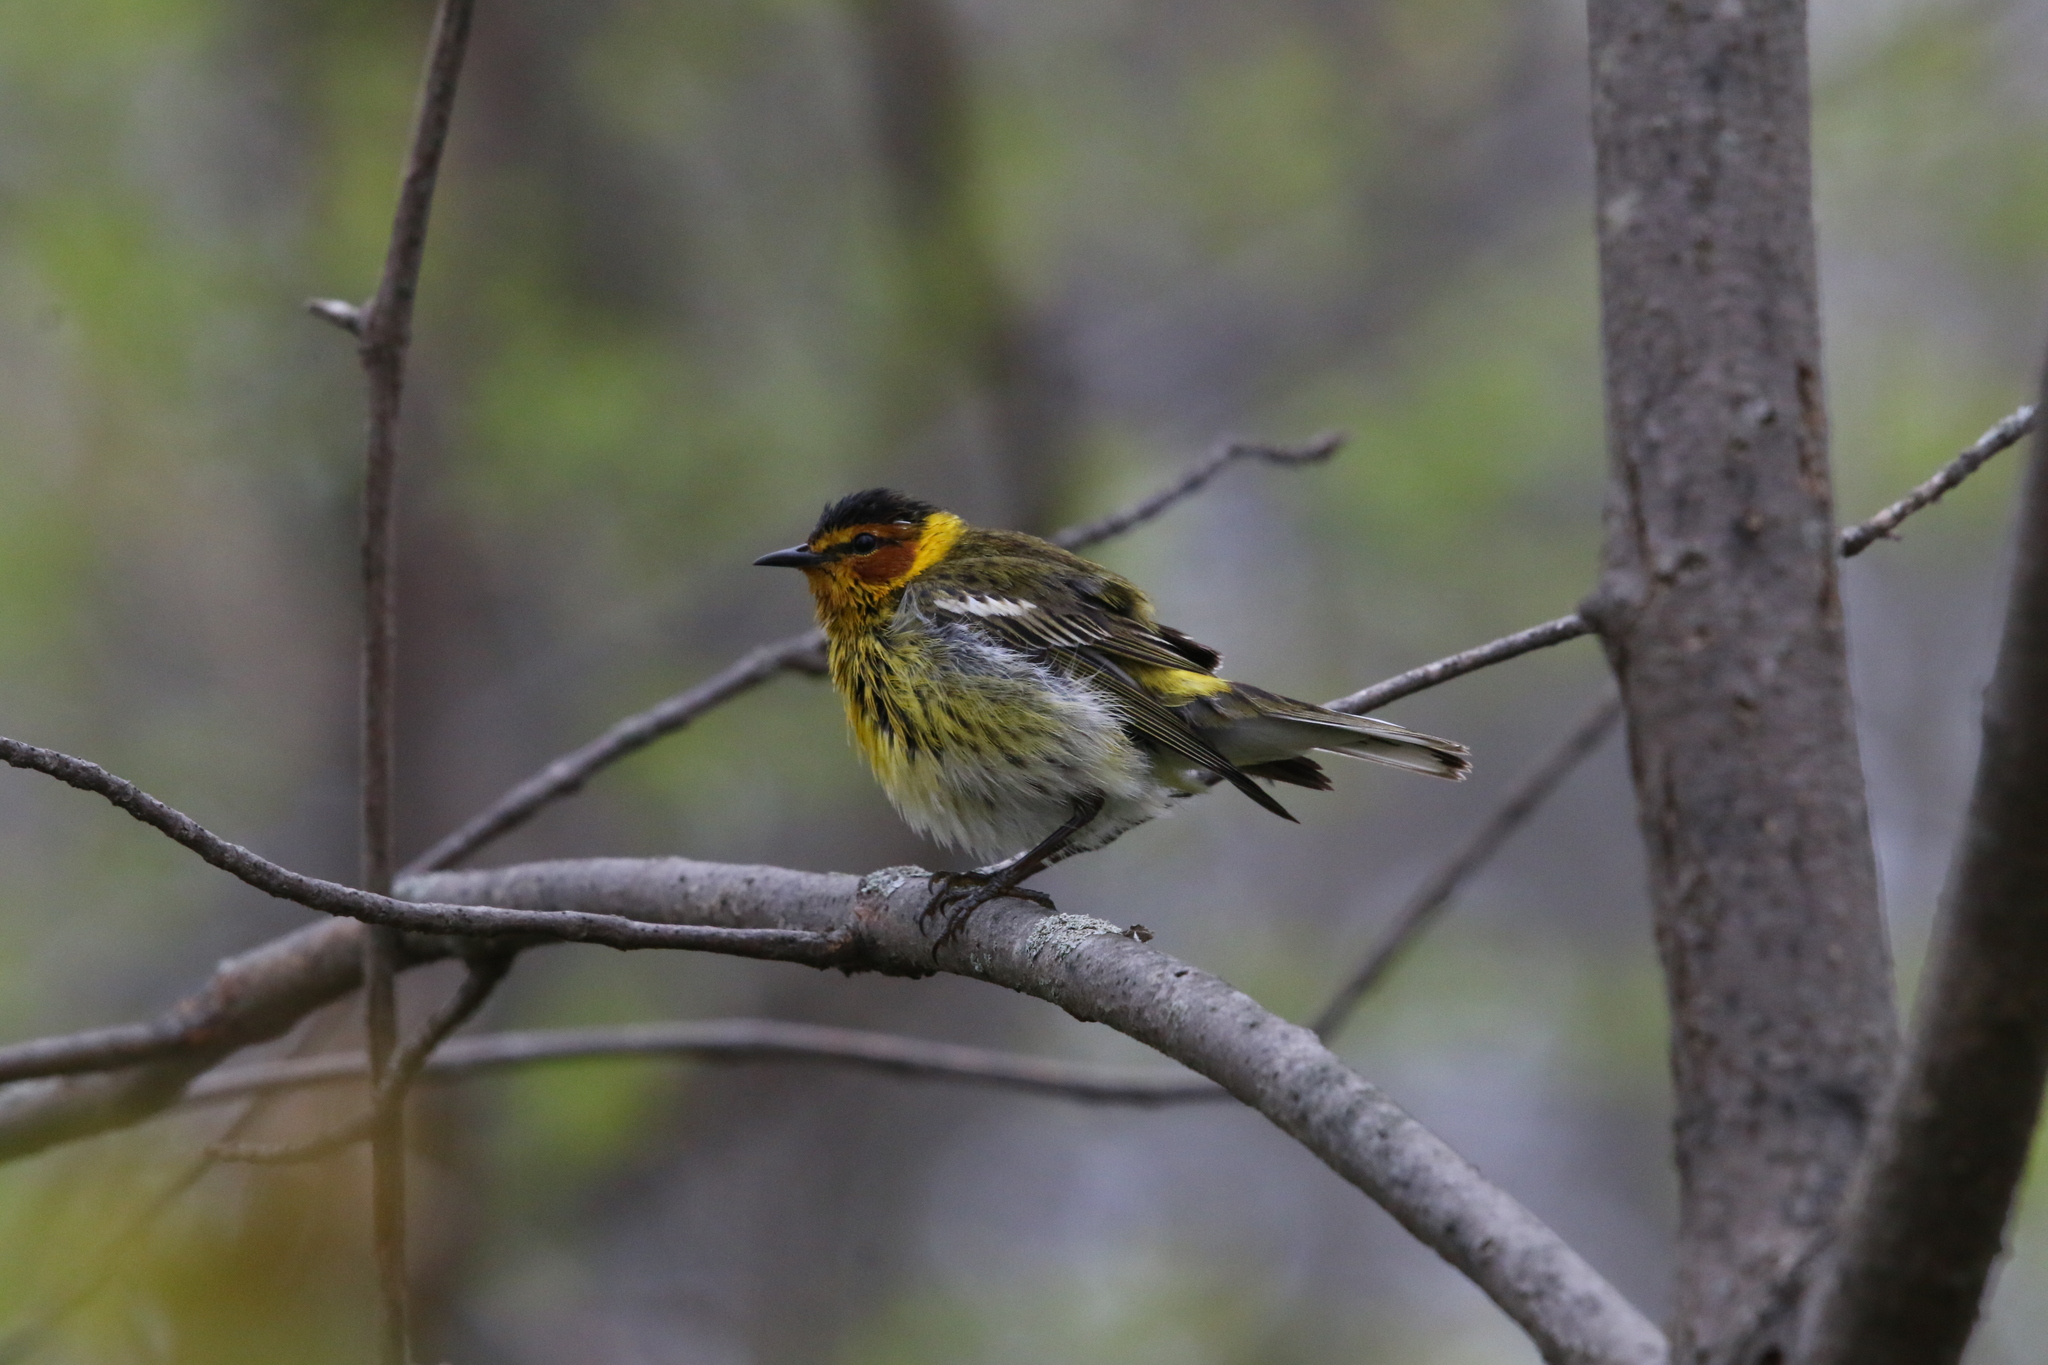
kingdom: Animalia
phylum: Chordata
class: Aves
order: Passeriformes
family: Parulidae
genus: Setophaga
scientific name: Setophaga tigrina
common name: Cape may warbler
